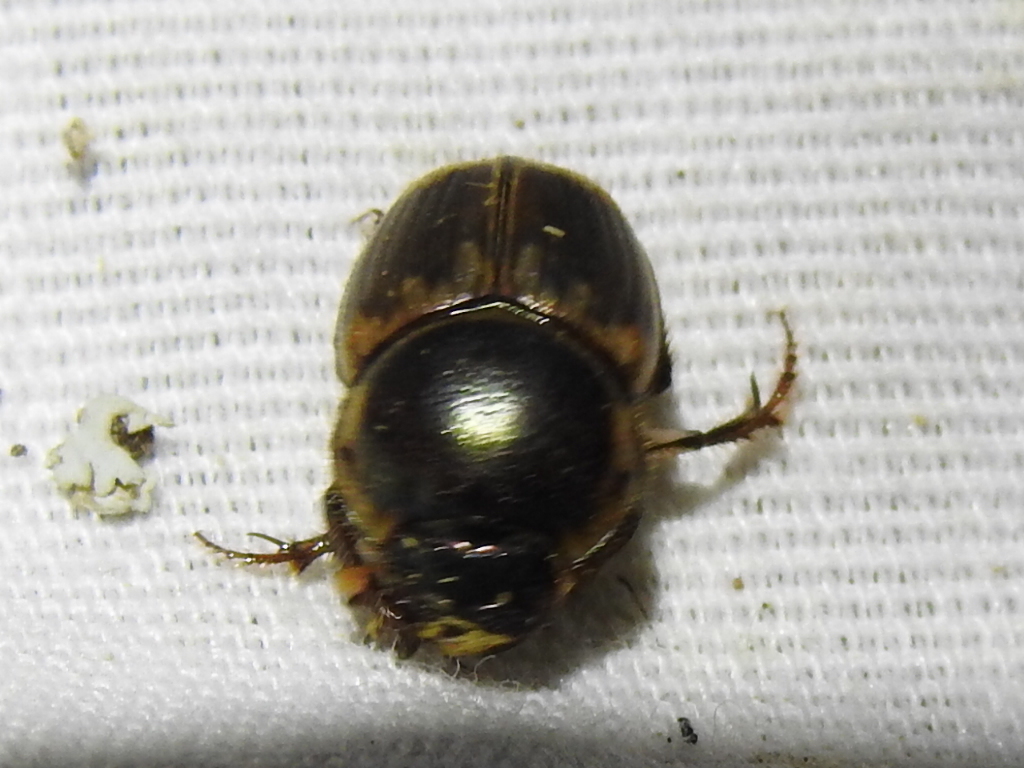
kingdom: Animalia
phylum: Arthropoda
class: Insecta
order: Coleoptera
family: Scarabaeidae
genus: Digitonthophagus
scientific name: Digitonthophagus gazella
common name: Brown dung beetle
